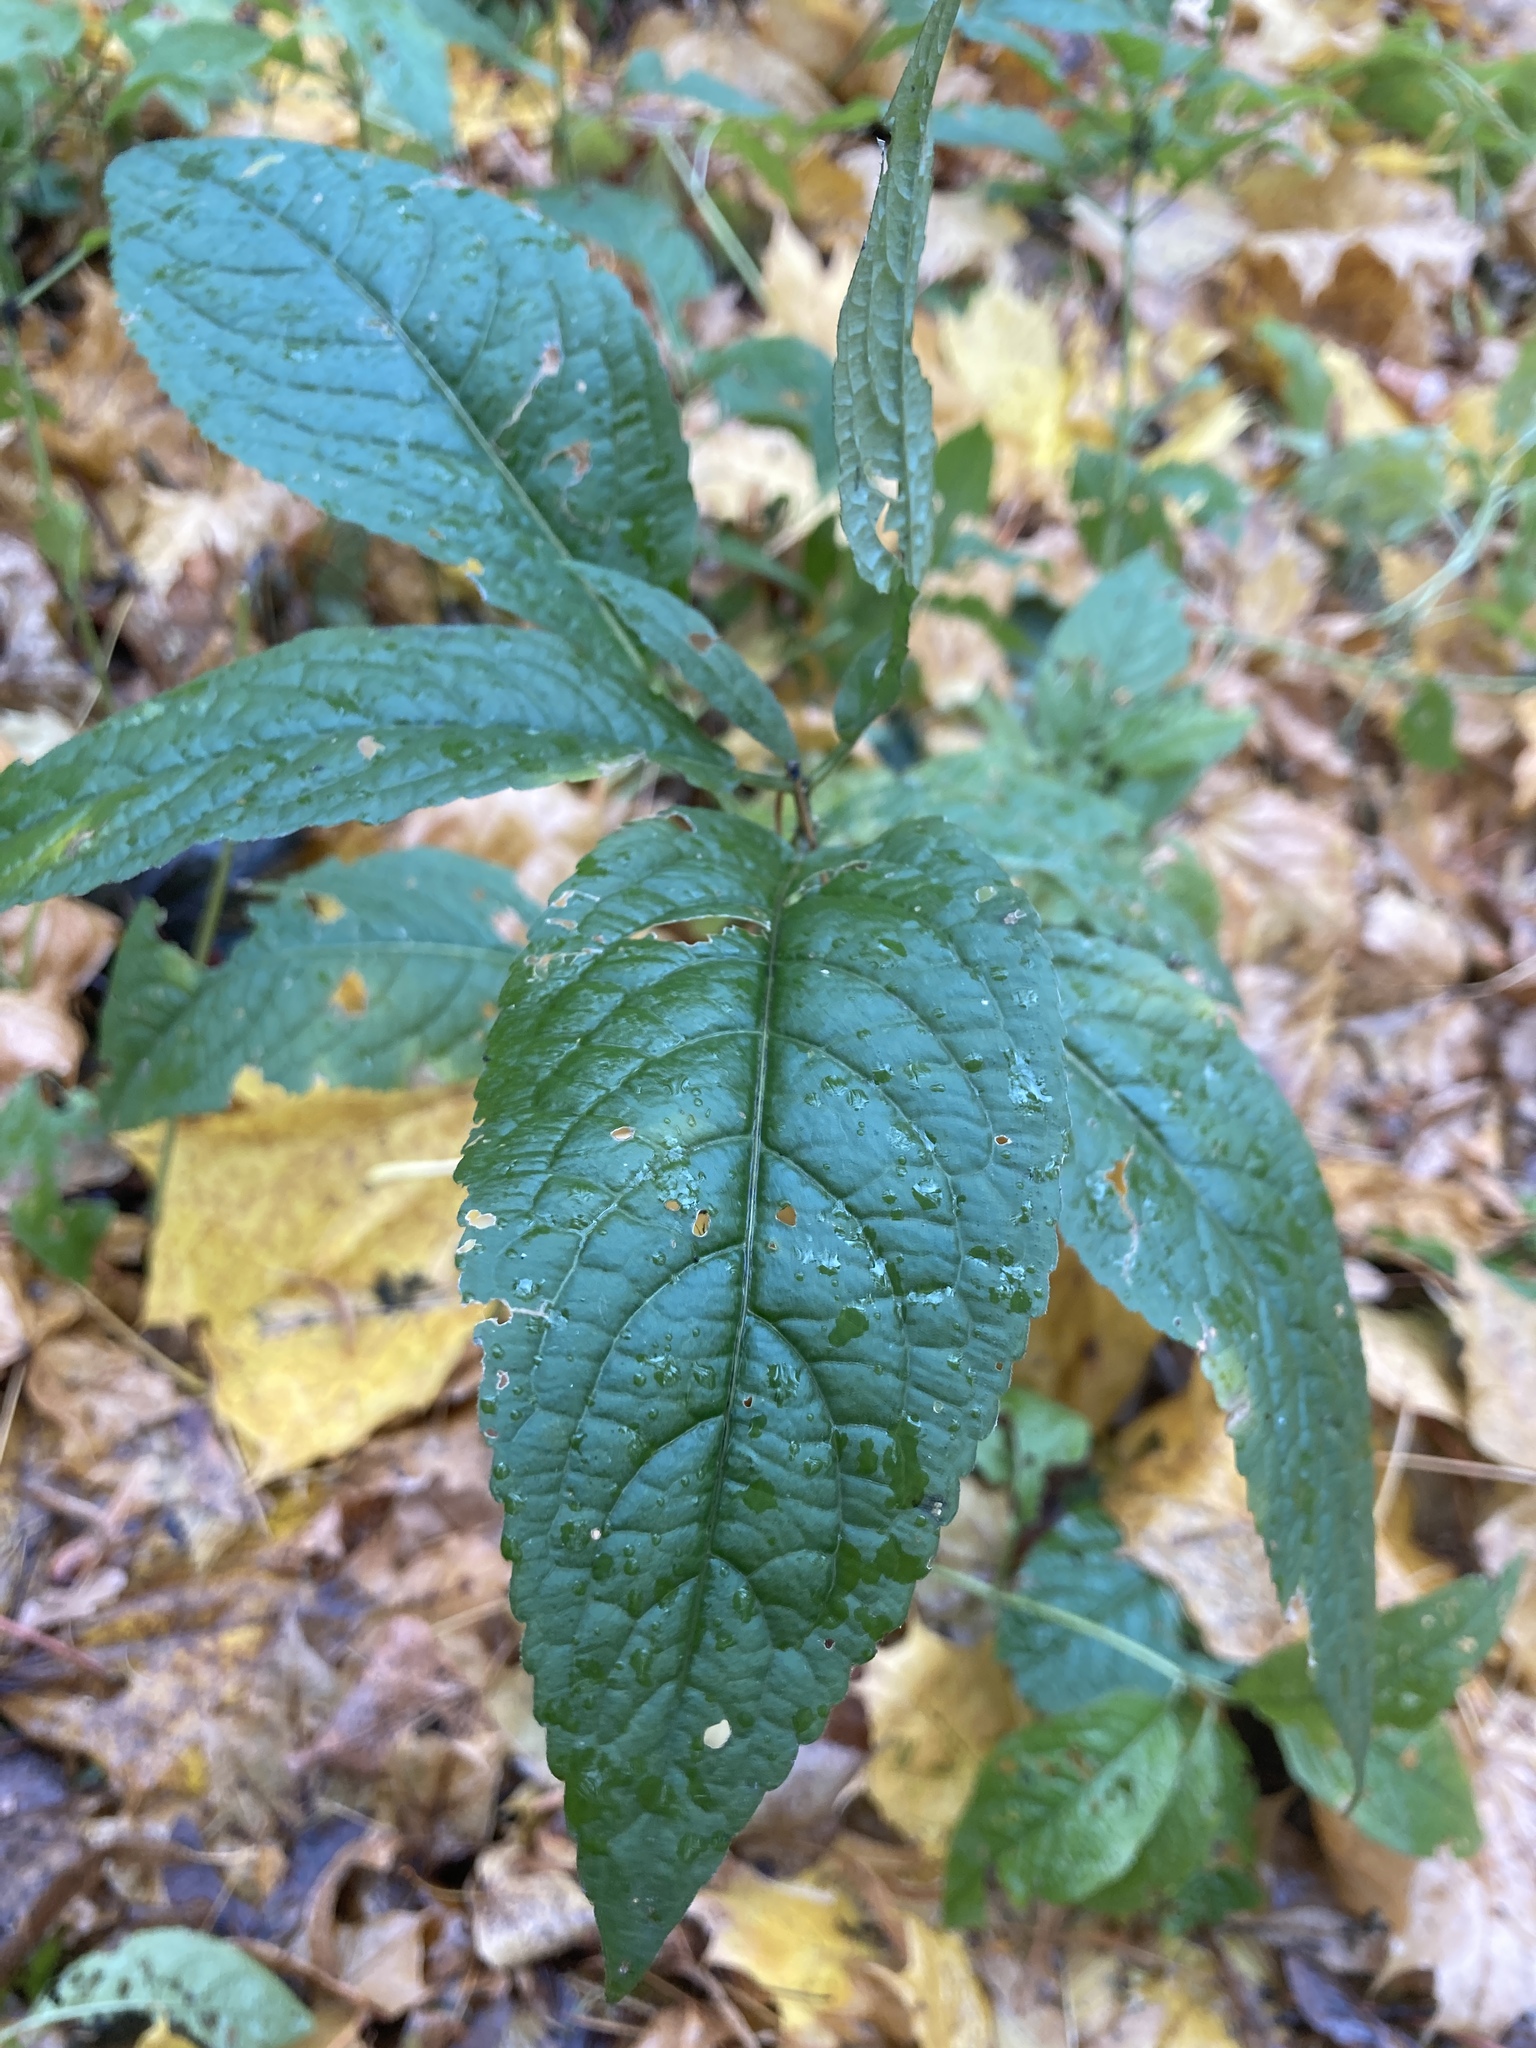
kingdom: Plantae
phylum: Tracheophyta
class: Magnoliopsida
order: Malpighiales
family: Euphorbiaceae
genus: Mercurialis
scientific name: Mercurialis perennis
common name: Dog mercury
